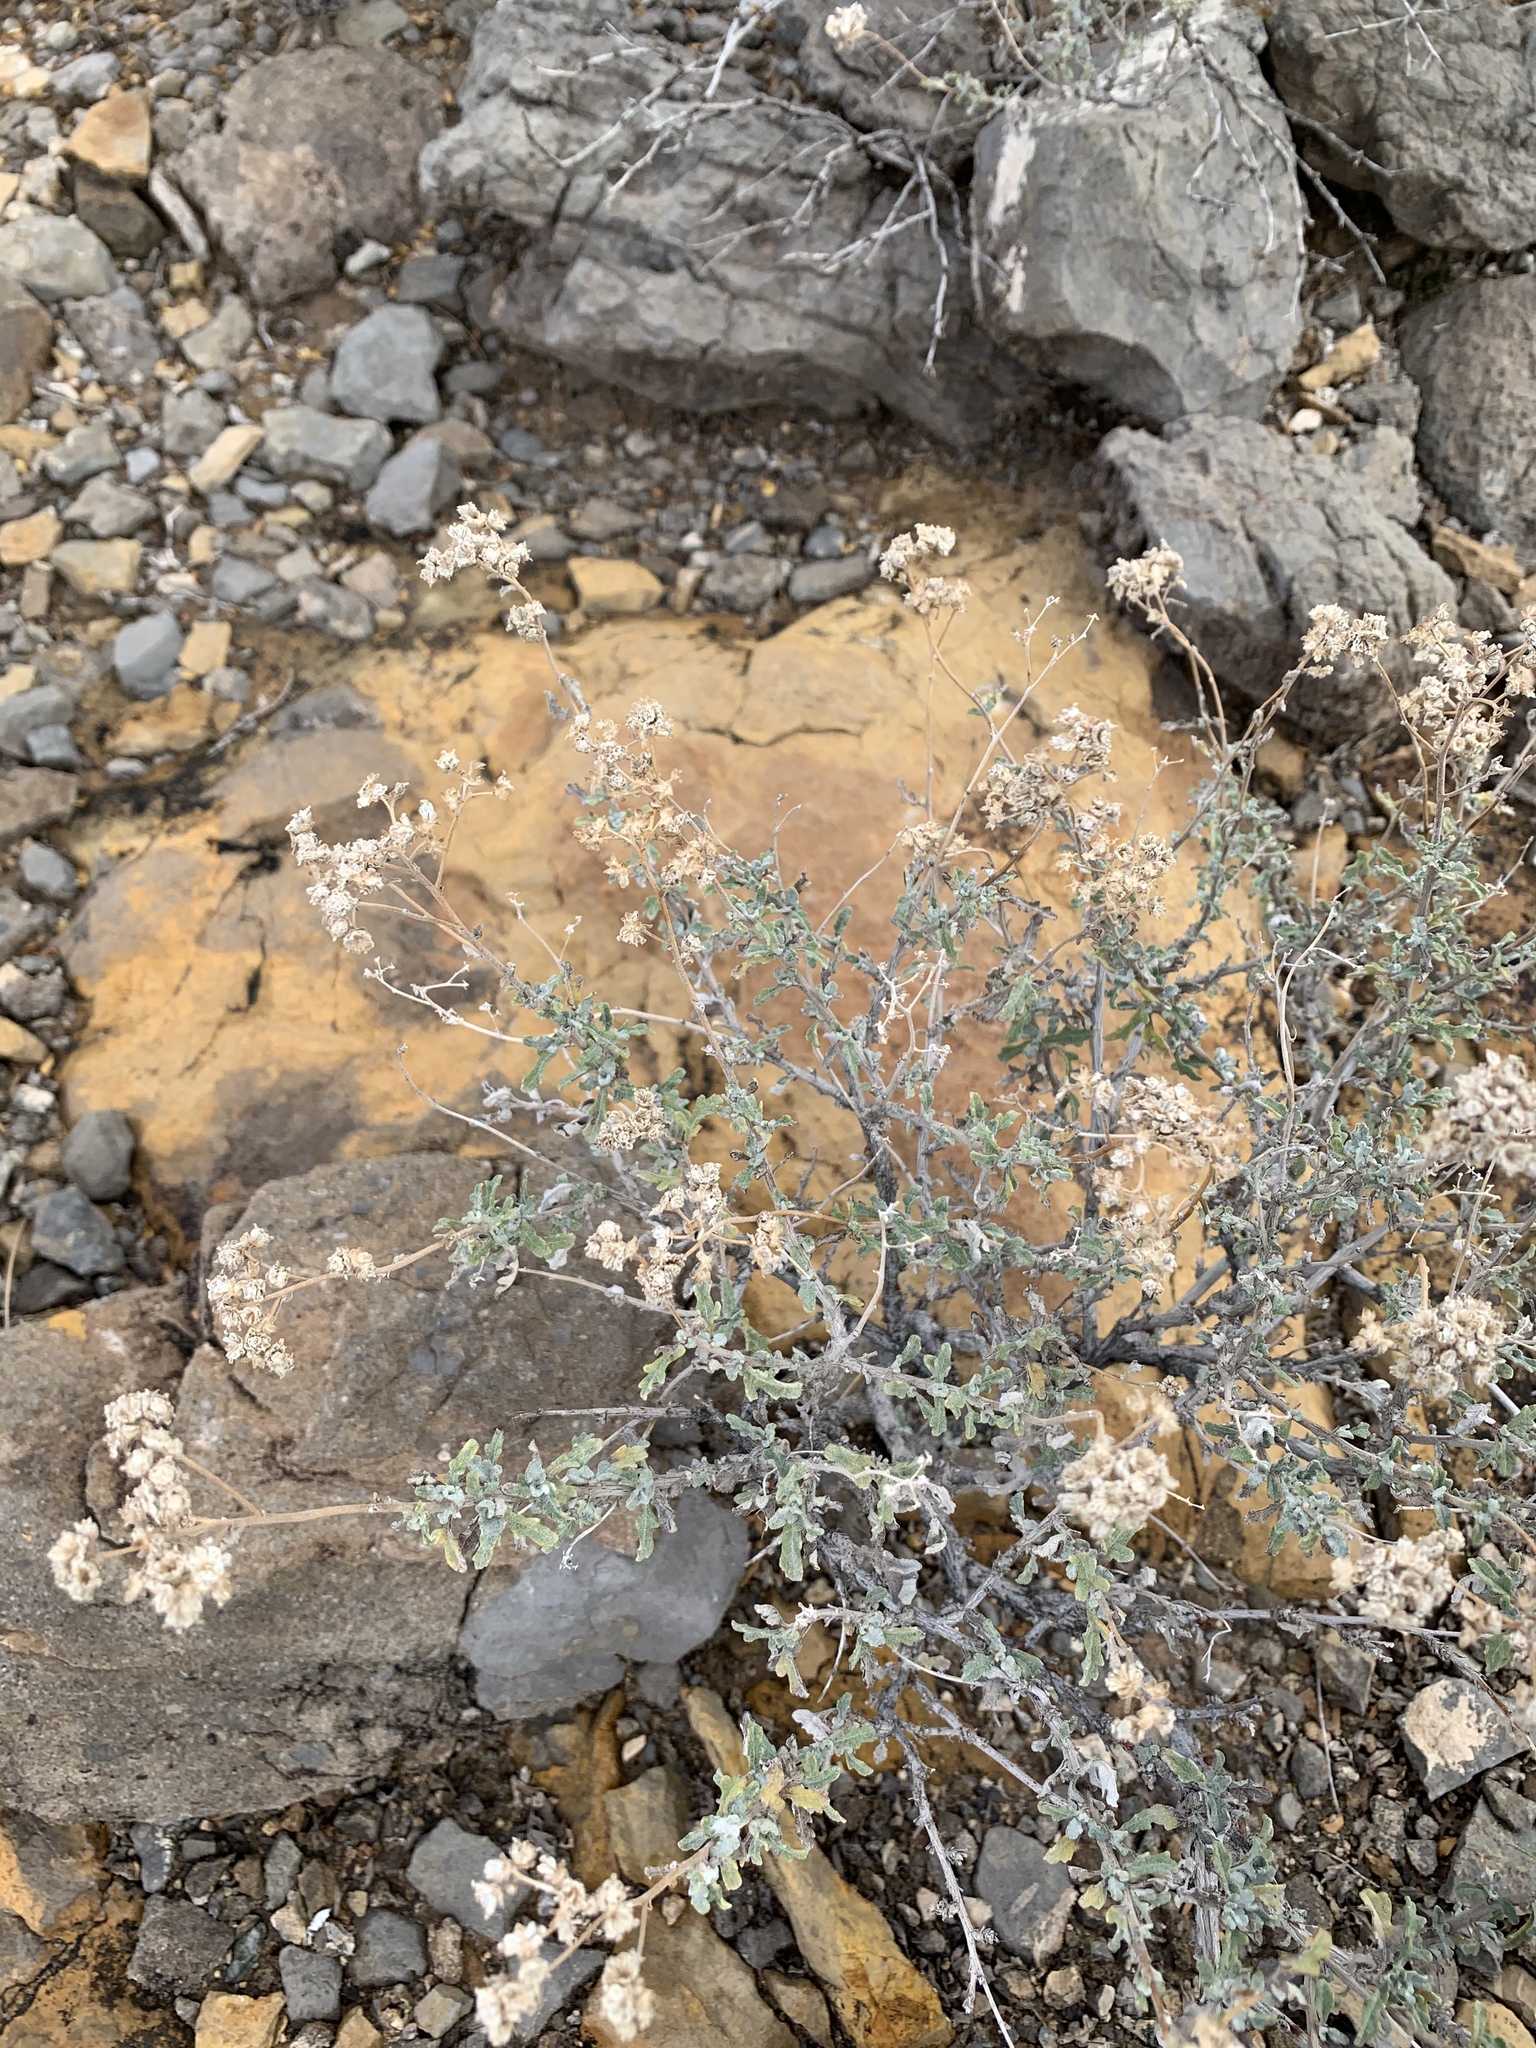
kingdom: Plantae
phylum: Tracheophyta
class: Magnoliopsida
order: Asterales
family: Asteraceae
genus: Parthenium
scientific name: Parthenium incanum
